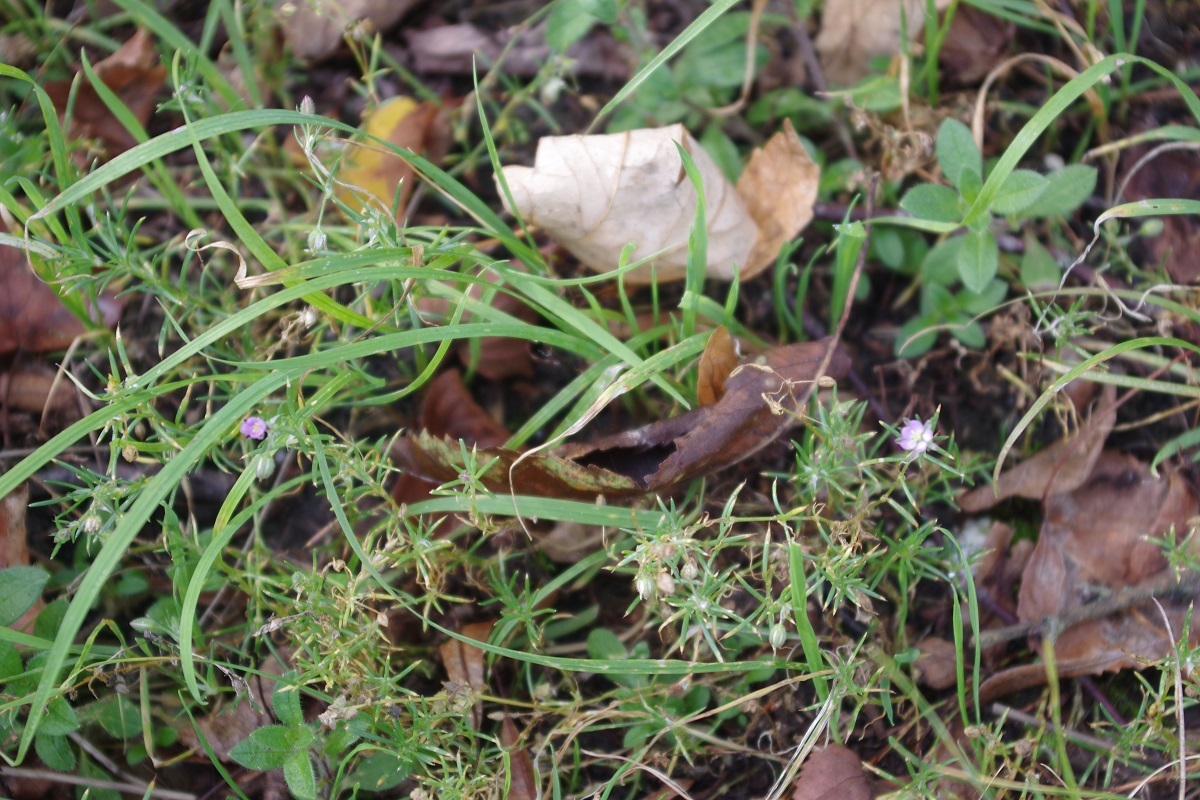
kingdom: Plantae
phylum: Tracheophyta
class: Magnoliopsida
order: Caryophyllales
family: Caryophyllaceae
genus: Spergularia
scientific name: Spergularia rubra
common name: Red sand-spurrey
